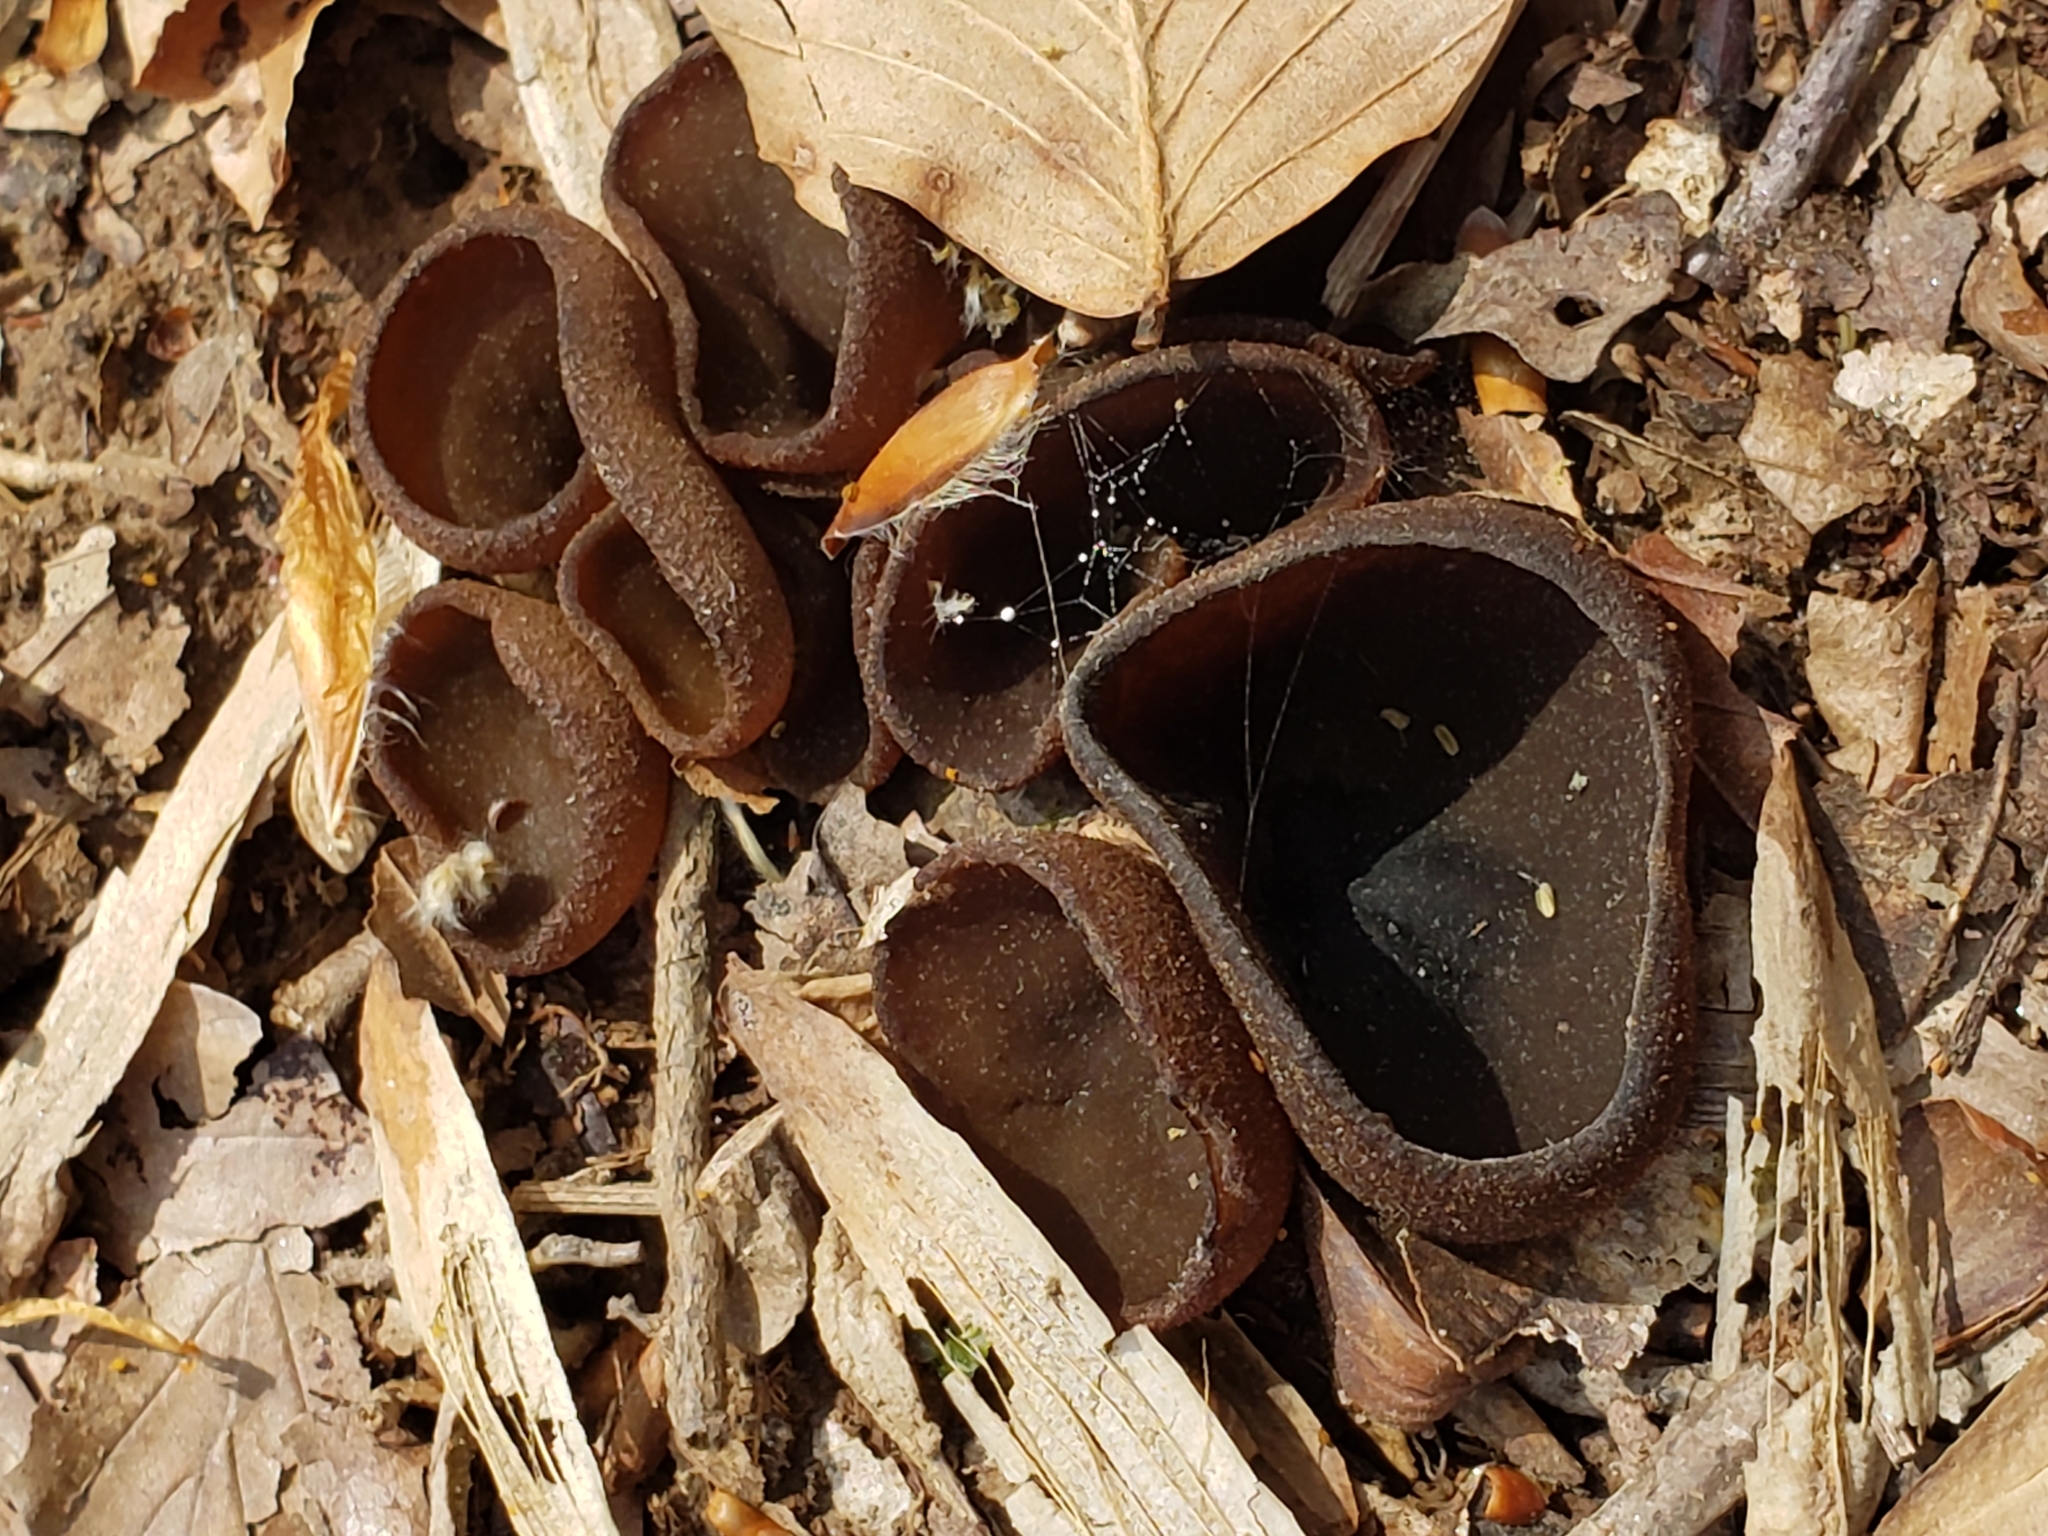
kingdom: Fungi
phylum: Ascomycota
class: Pezizomycetes
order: Pezizales
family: Pezizaceae
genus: Phylloscypha
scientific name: Phylloscypha phyllogena
